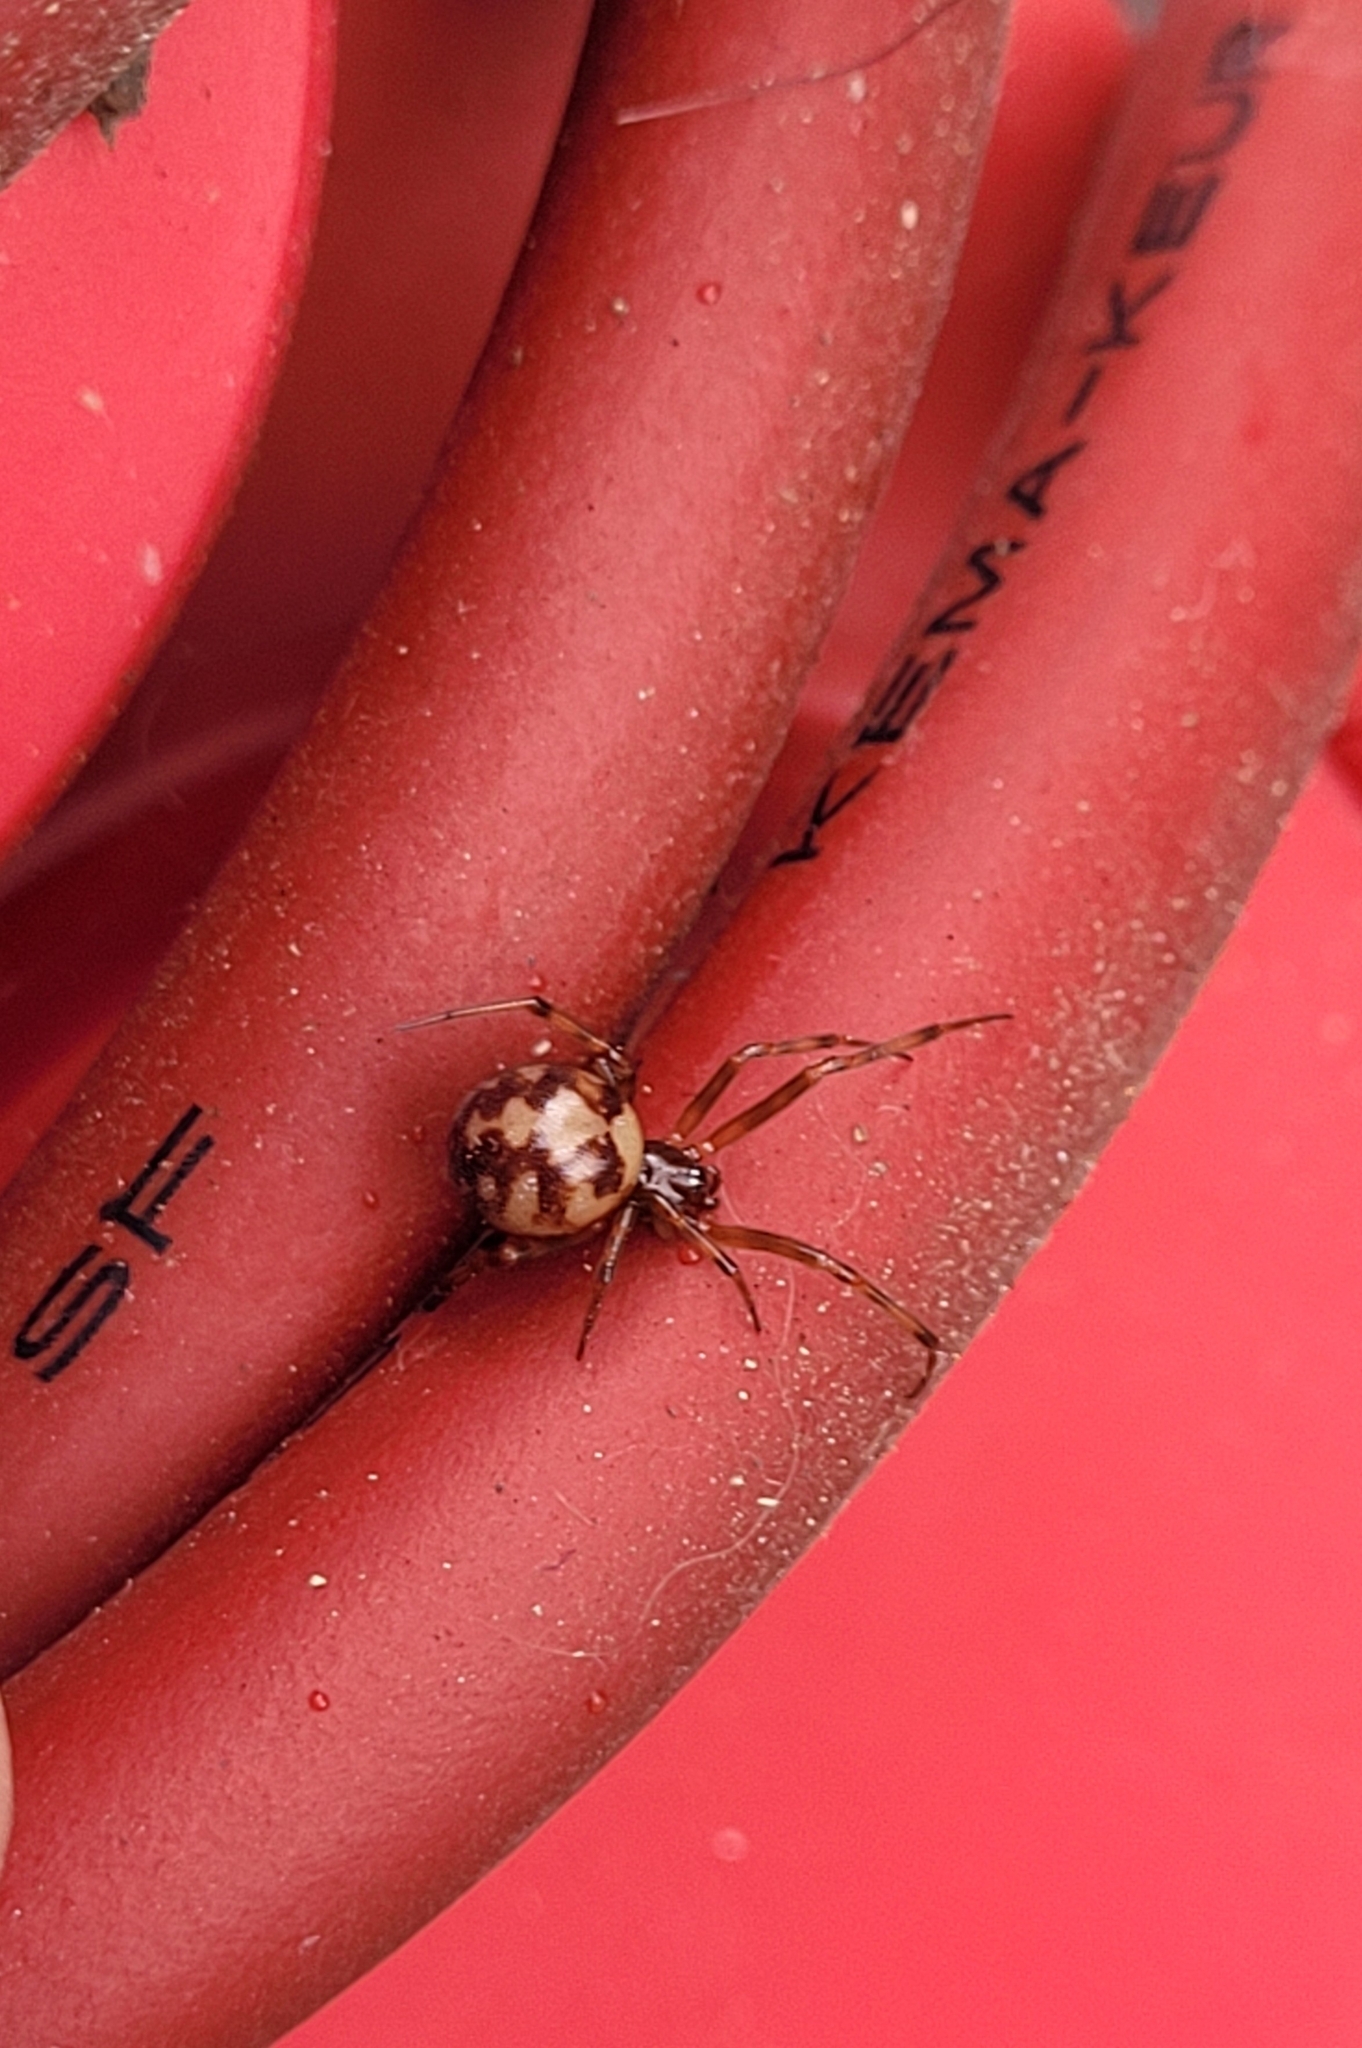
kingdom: Animalia
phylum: Arthropoda
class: Arachnida
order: Araneae
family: Theridiidae
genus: Steatoda
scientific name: Steatoda triangulosa
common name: Triangulate bud spider
